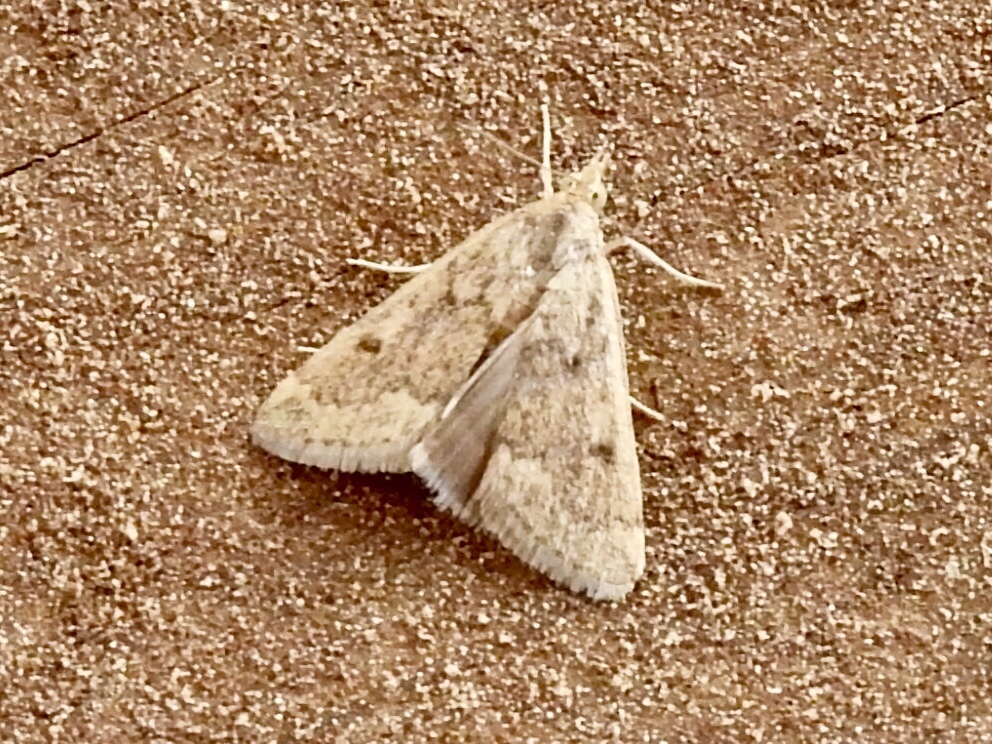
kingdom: Animalia
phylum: Arthropoda
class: Insecta
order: Lepidoptera
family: Crambidae
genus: Achyra
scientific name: Achyra rantalis
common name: Garden webworm
